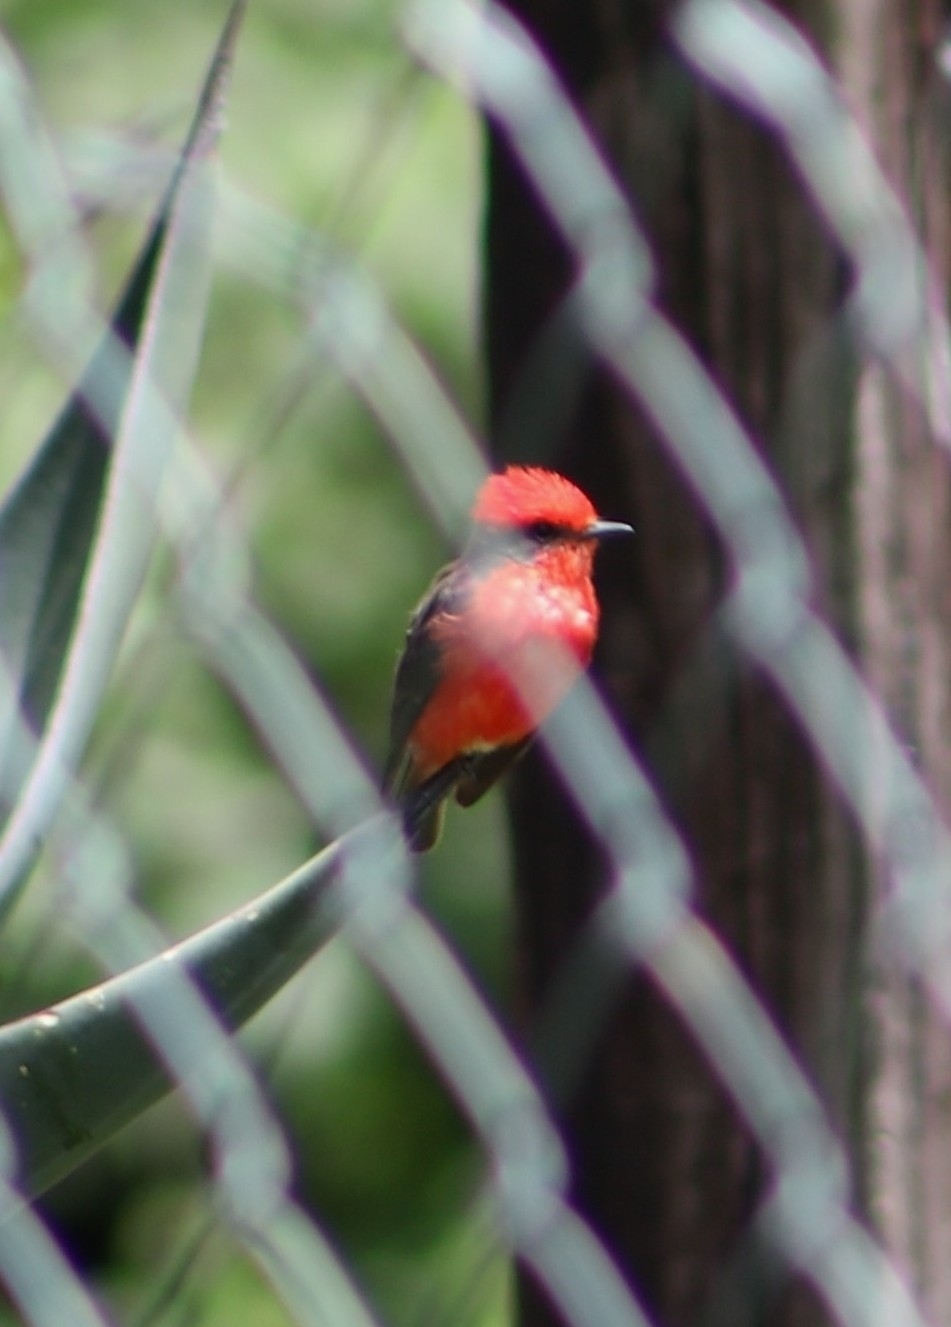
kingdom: Animalia
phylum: Chordata
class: Aves
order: Passeriformes
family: Tyrannidae
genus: Pyrocephalus
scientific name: Pyrocephalus rubinus
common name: Vermilion flycatcher
